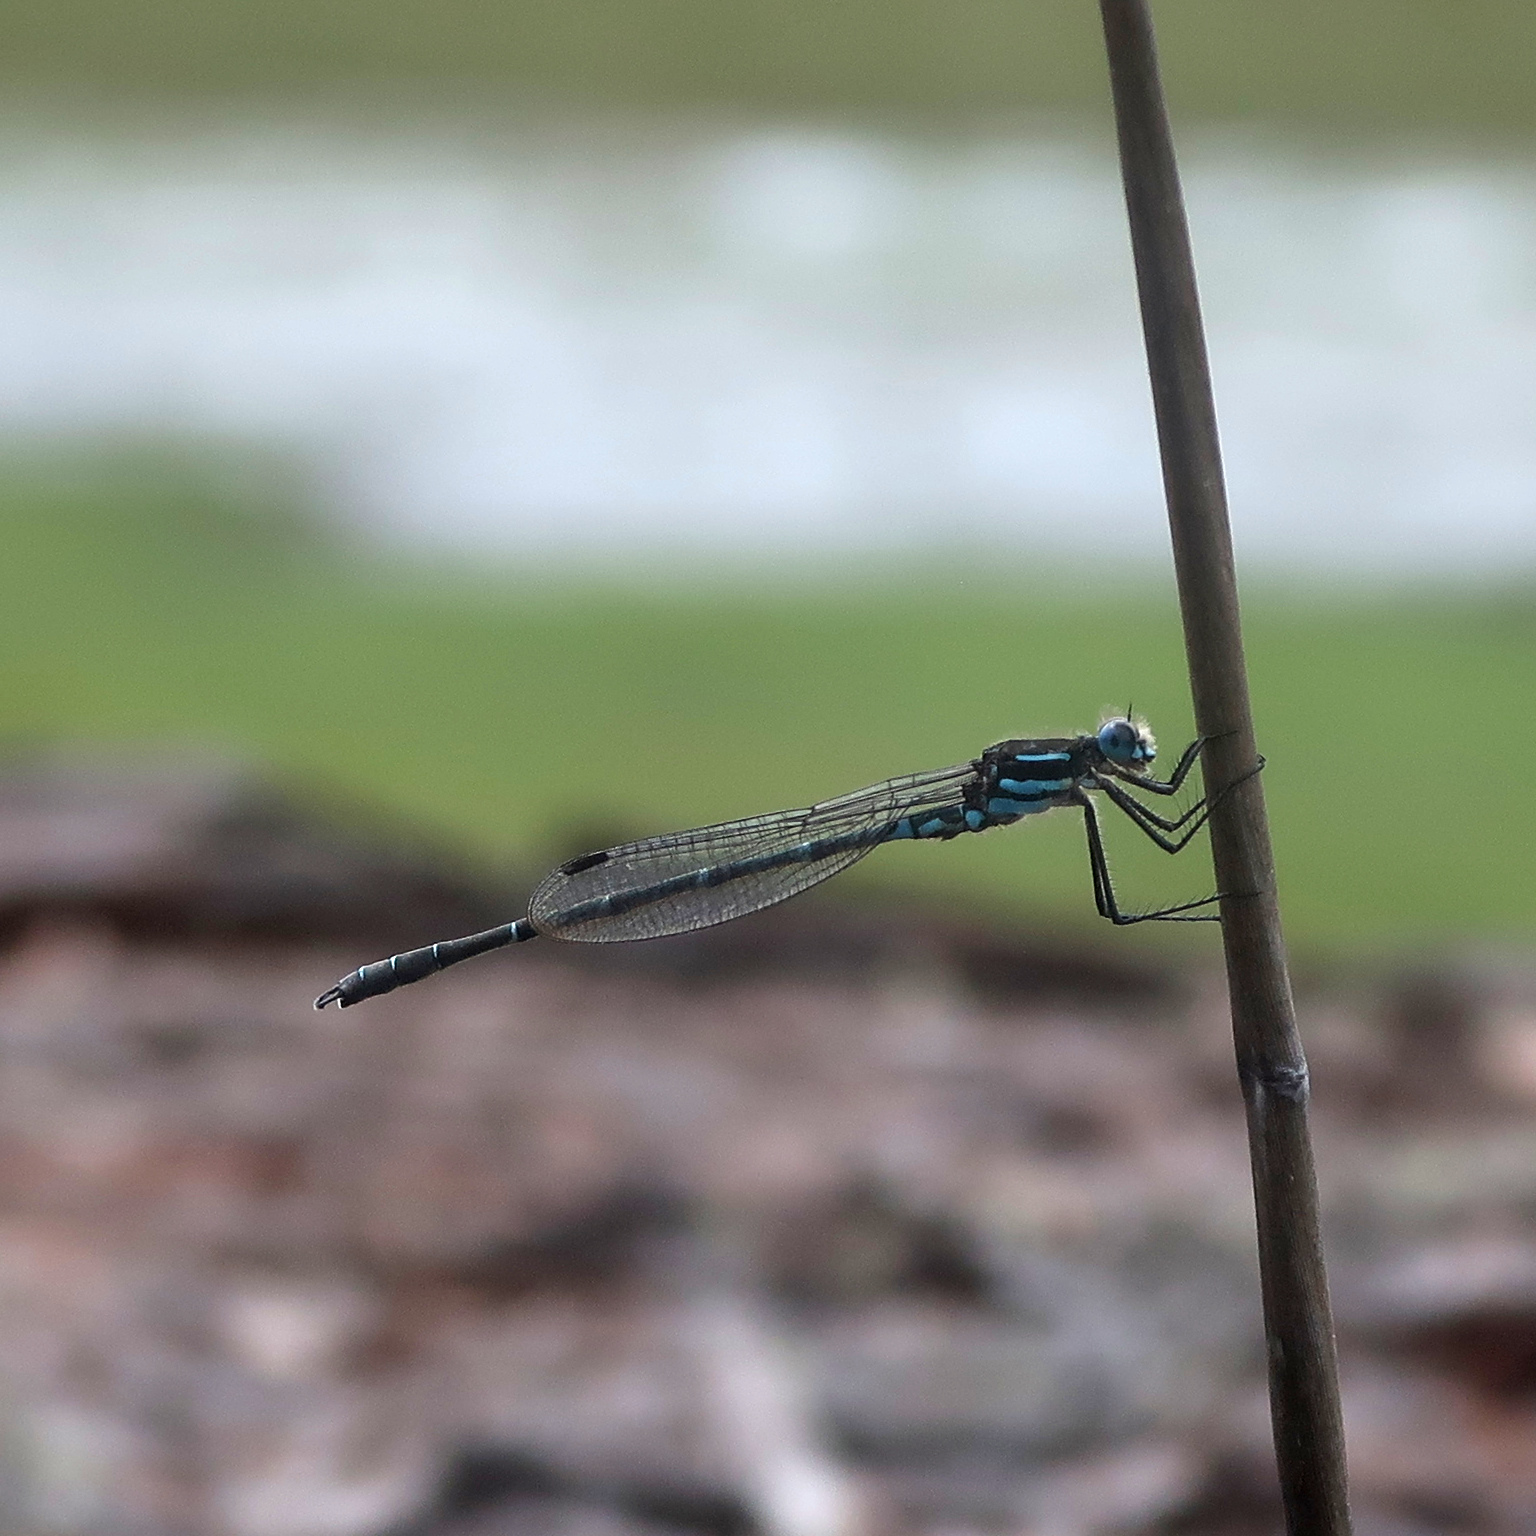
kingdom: Animalia
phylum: Arthropoda
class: Insecta
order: Odonata
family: Lestidae
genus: Austrolestes
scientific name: Austrolestes psyche
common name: Cup ringtail
